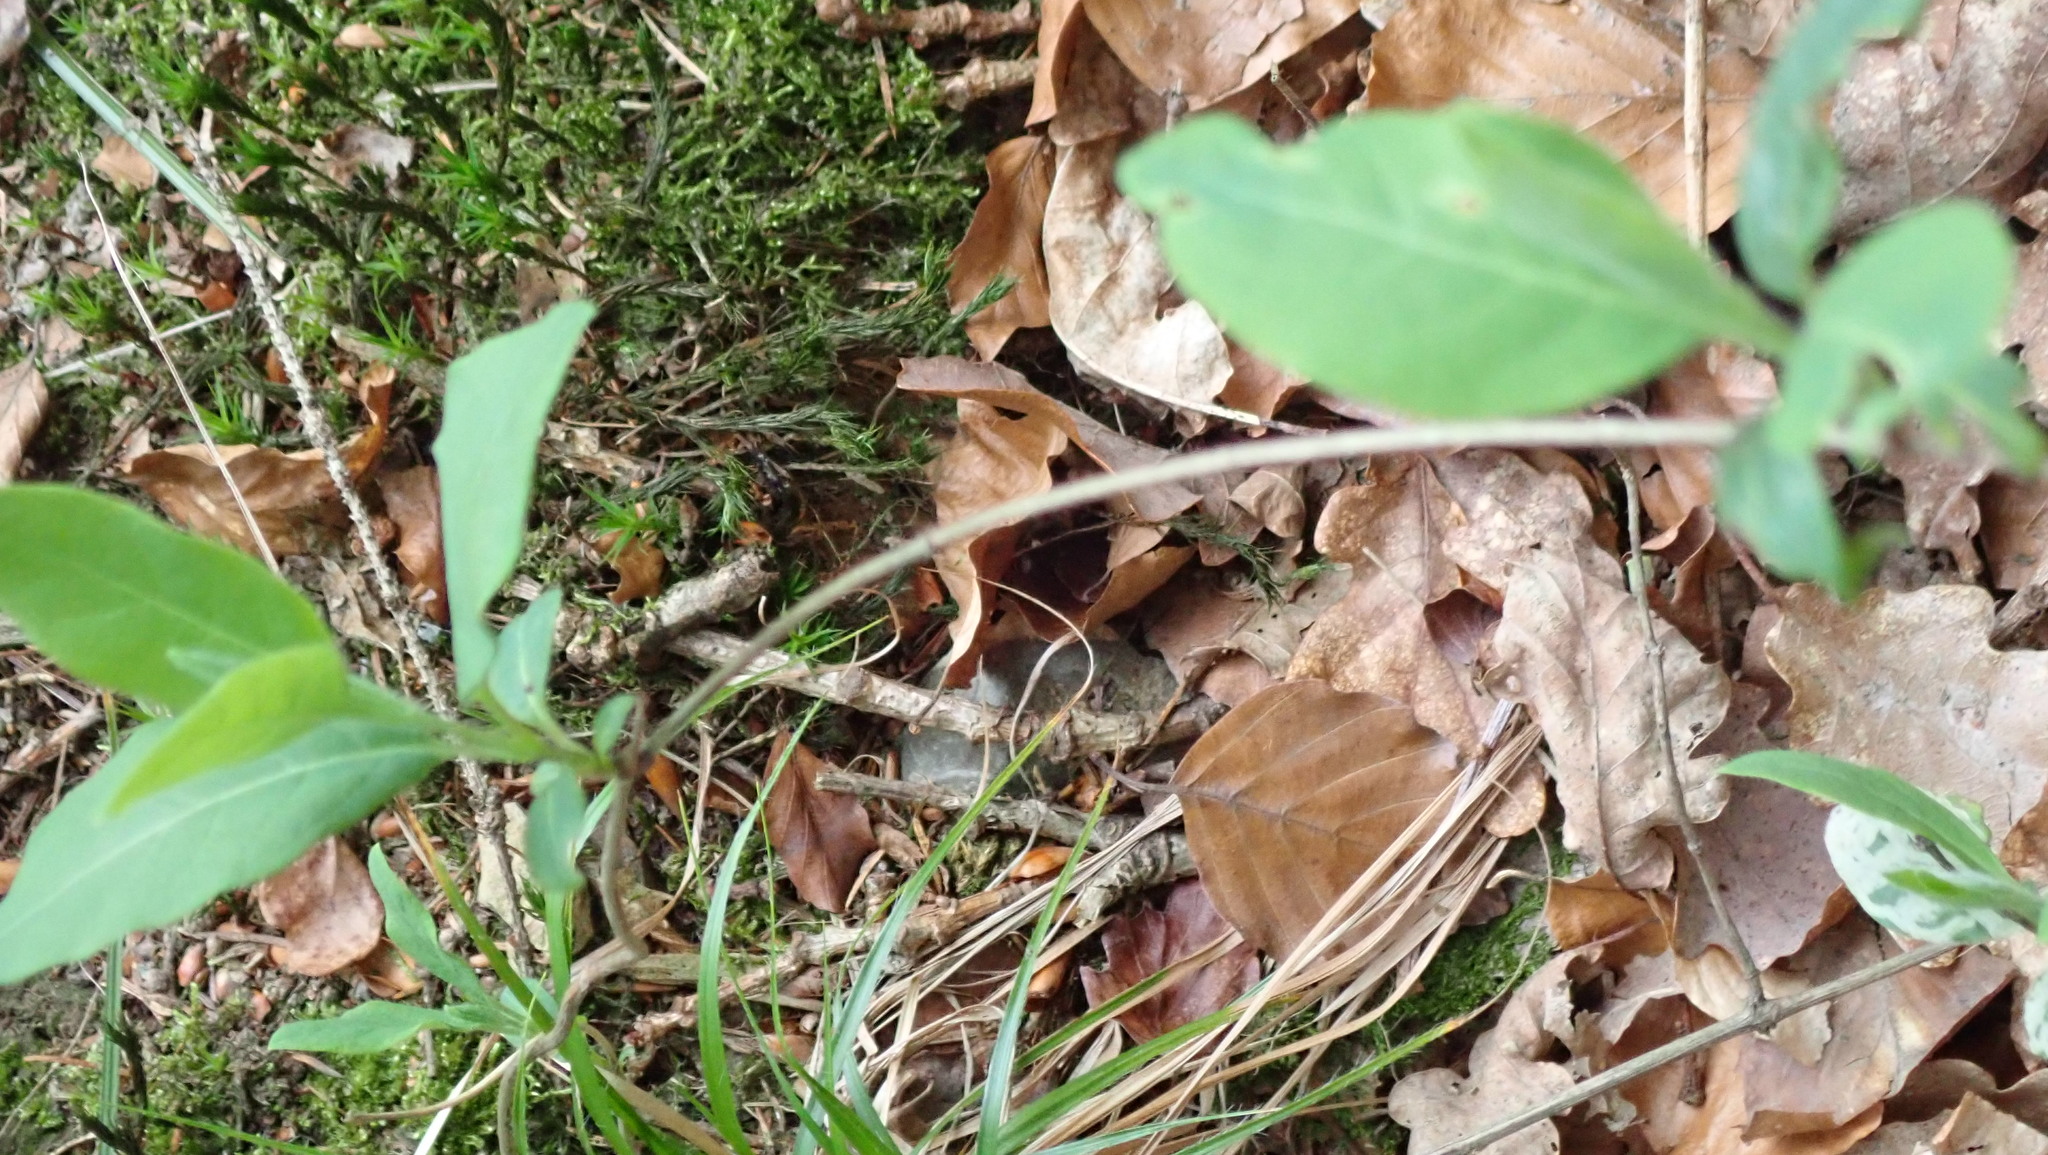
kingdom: Plantae
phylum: Tracheophyta
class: Magnoliopsida
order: Dipsacales
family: Caprifoliaceae
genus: Lonicera
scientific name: Lonicera periclymenum
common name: European honeysuckle
